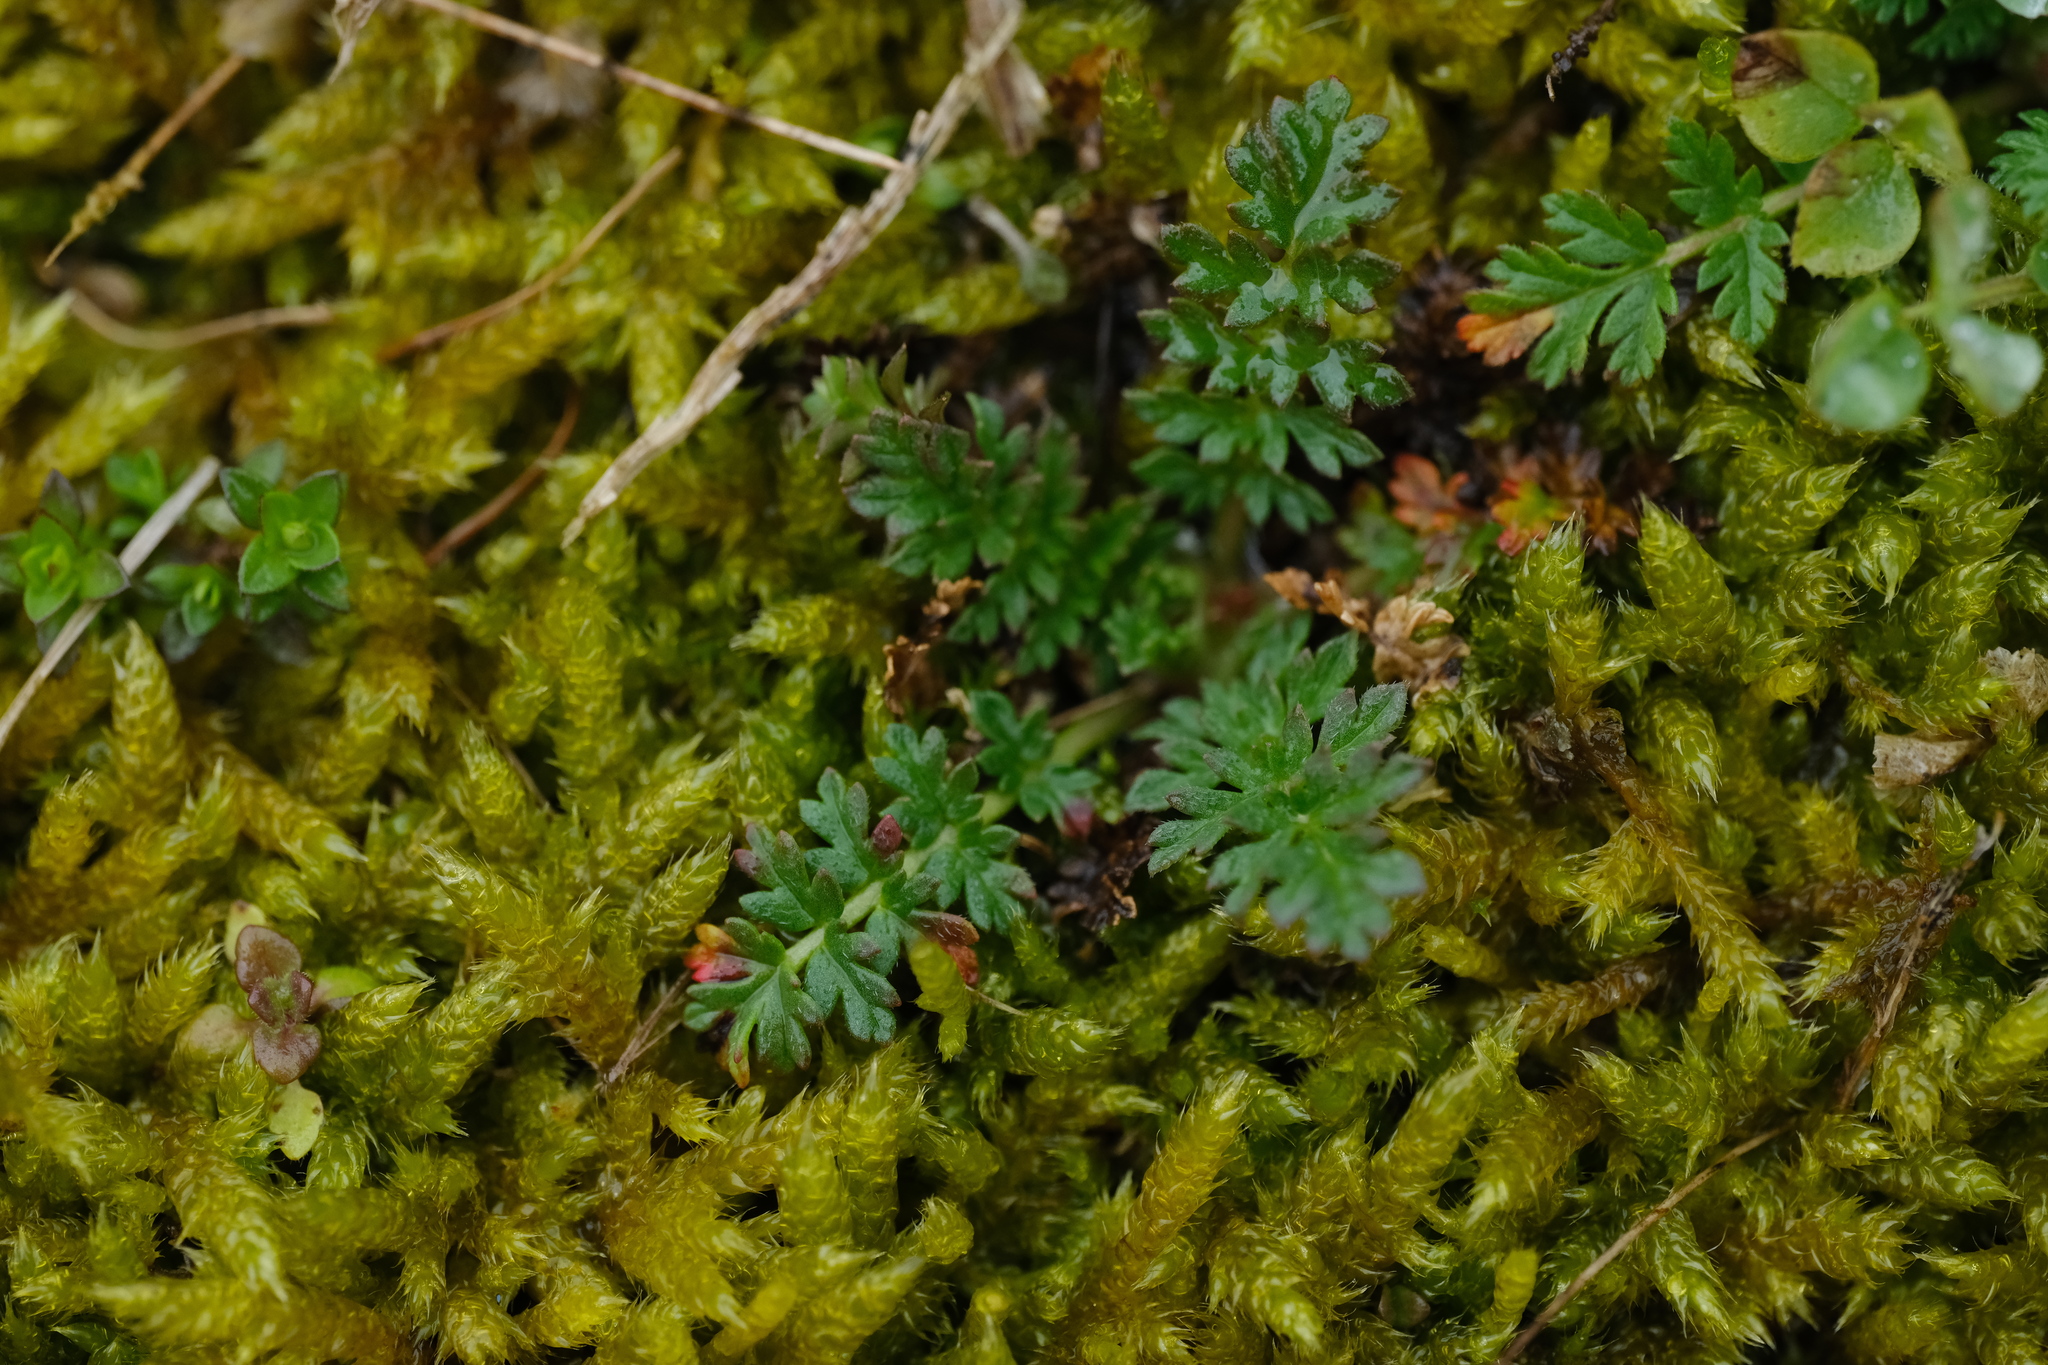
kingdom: Plantae
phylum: Tracheophyta
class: Magnoliopsida
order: Geraniales
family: Geraniaceae
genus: Erodium
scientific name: Erodium cicutarium
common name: Common stork's-bill
